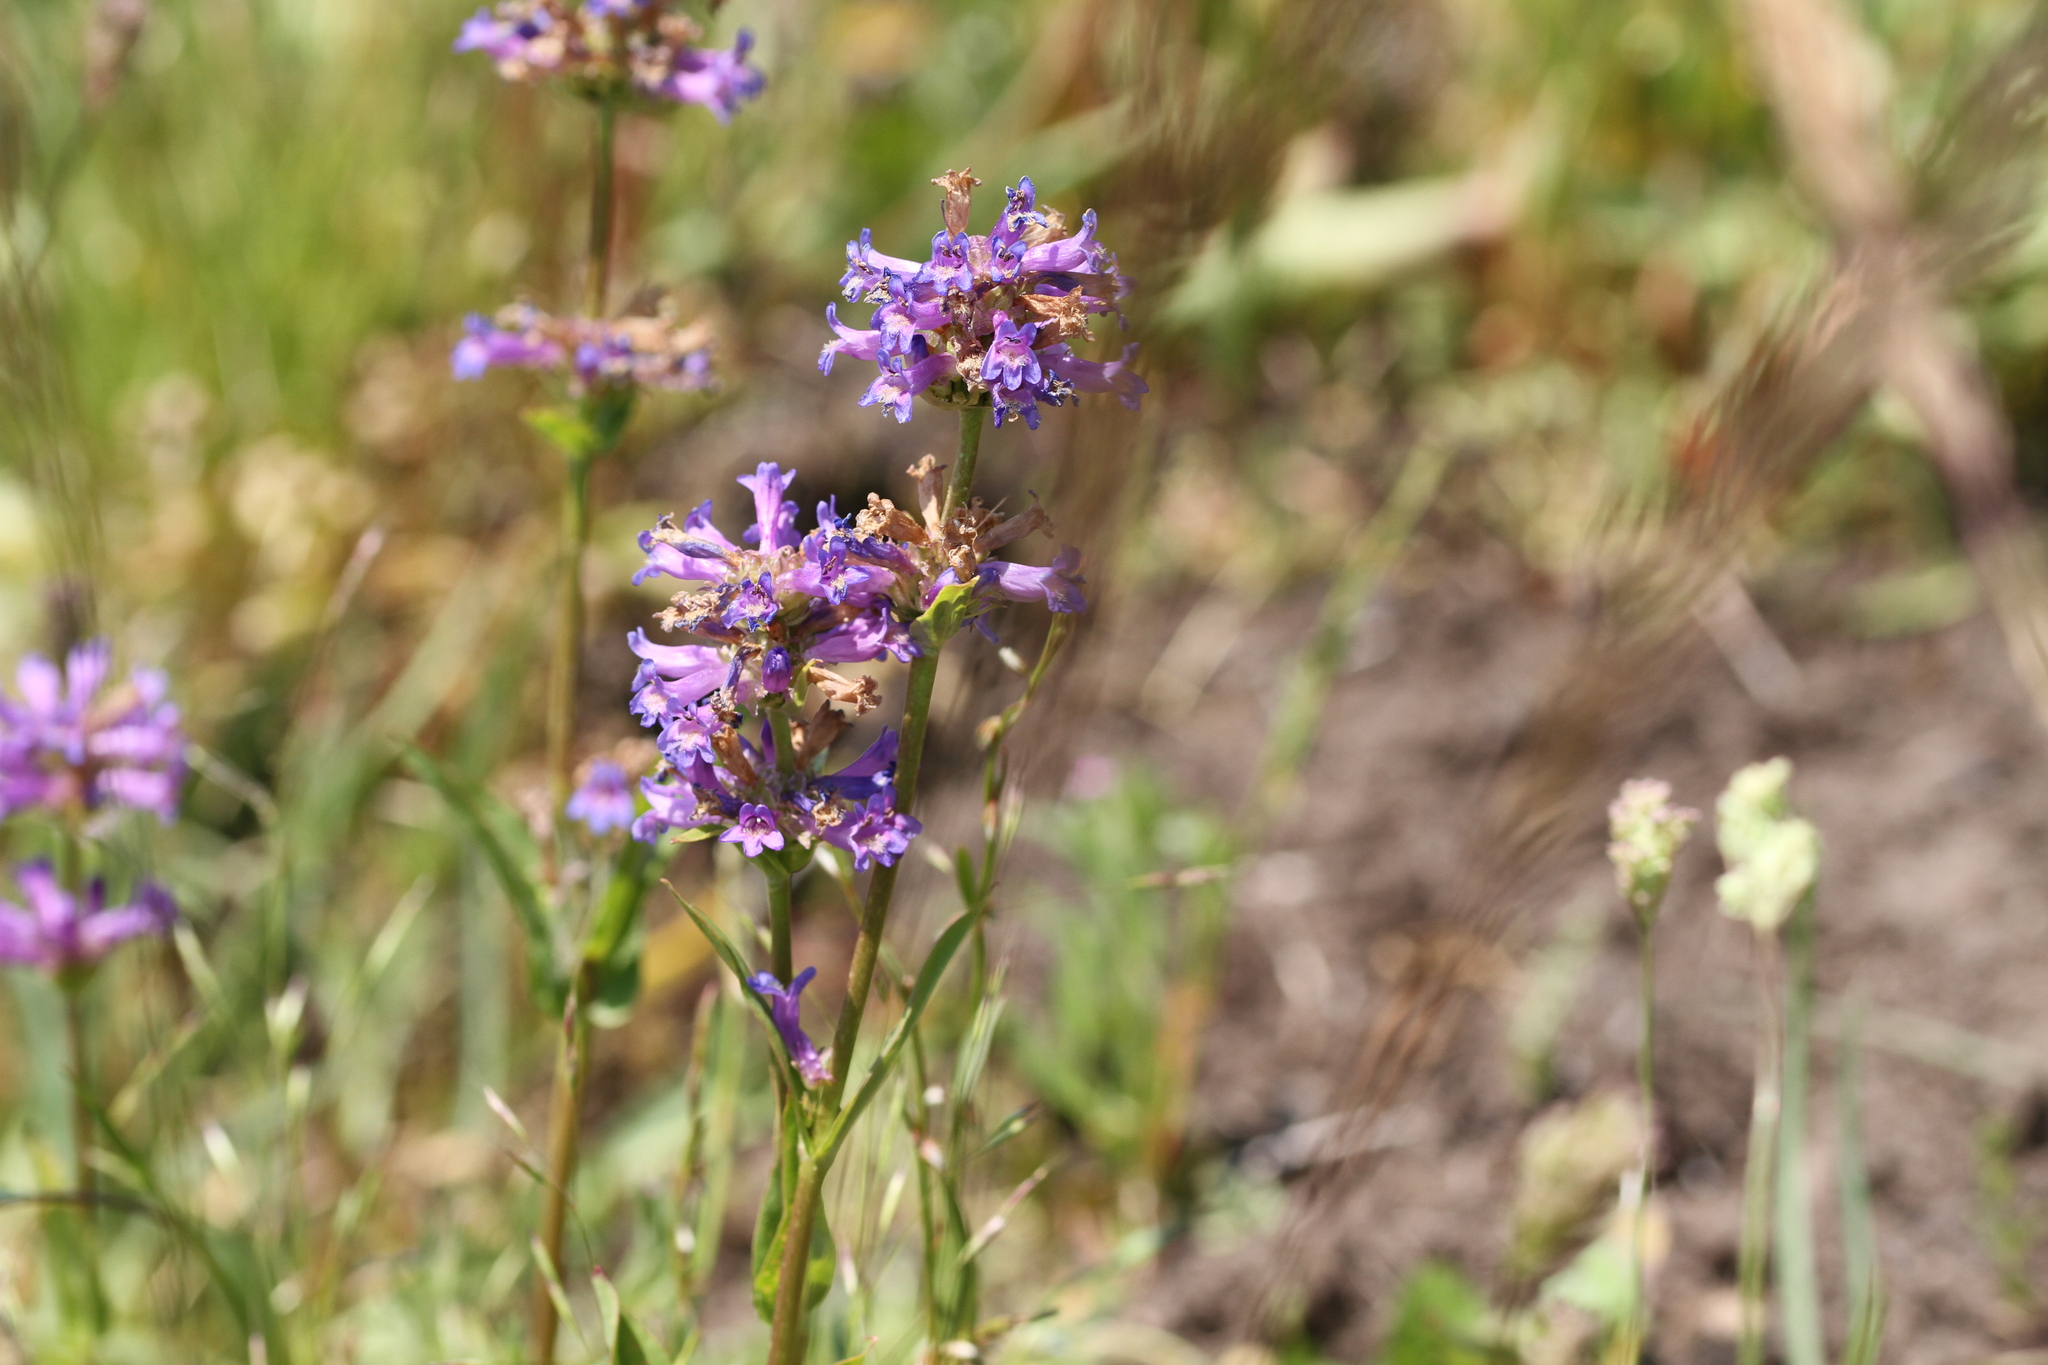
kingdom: Plantae
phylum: Tracheophyta
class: Magnoliopsida
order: Lamiales
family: Plantaginaceae
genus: Penstemon
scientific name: Penstemon rydbergii
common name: Rydberg's beardtongue
